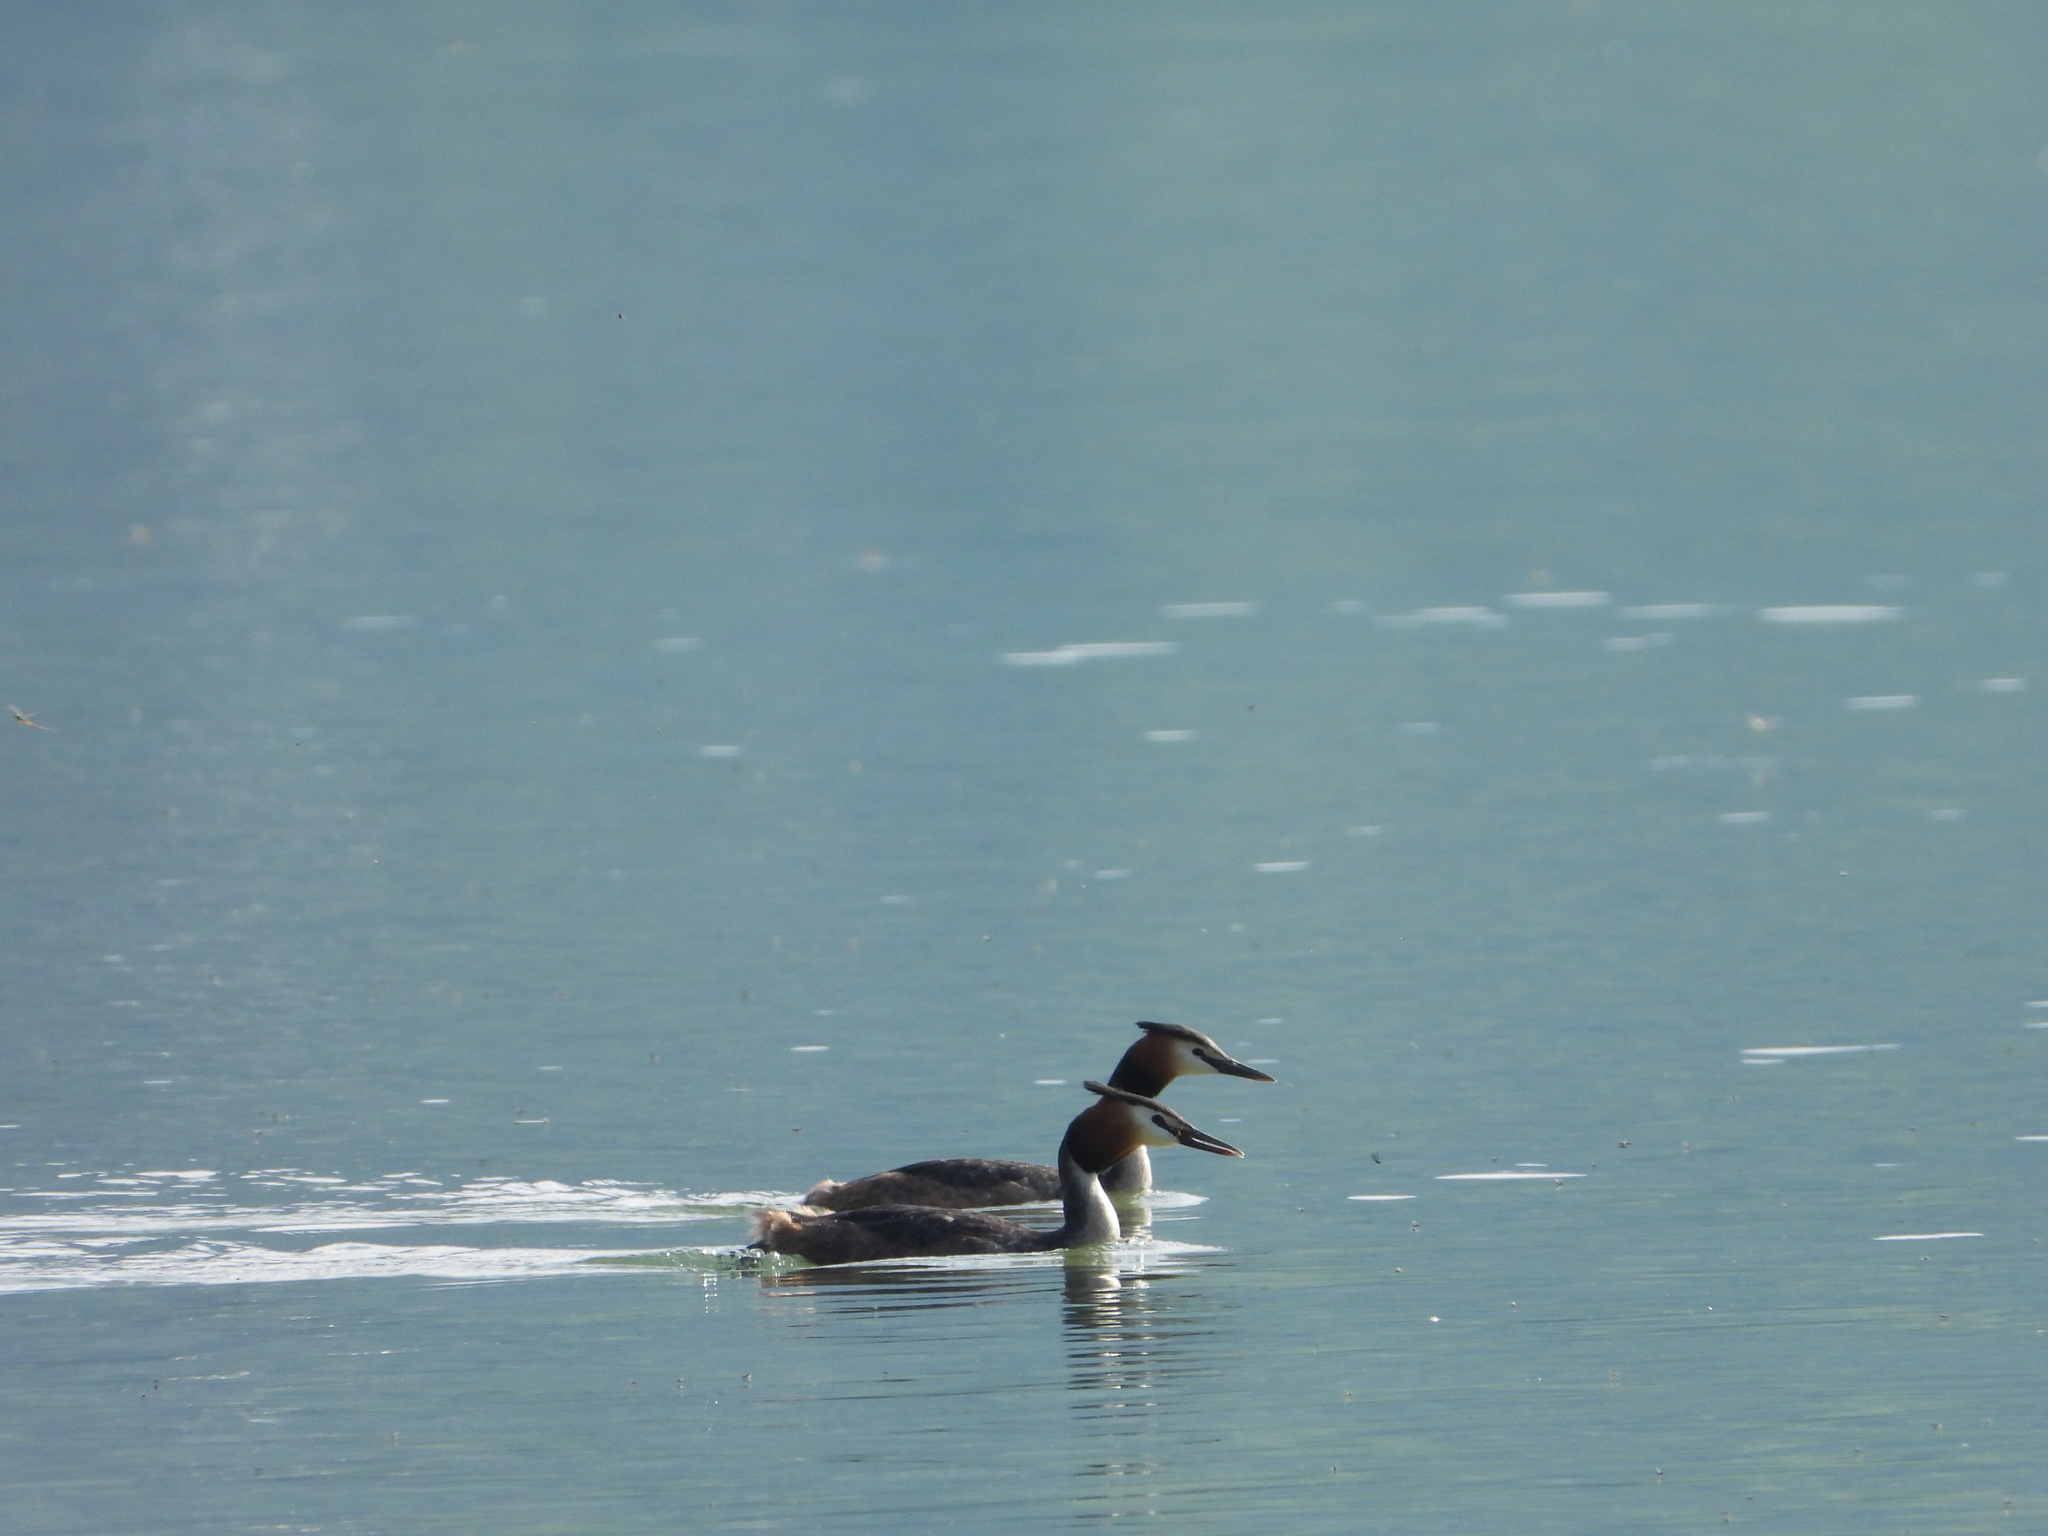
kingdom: Animalia
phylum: Chordata
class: Aves
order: Podicipediformes
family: Podicipedidae
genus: Podiceps
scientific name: Podiceps cristatus
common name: Great crested grebe
